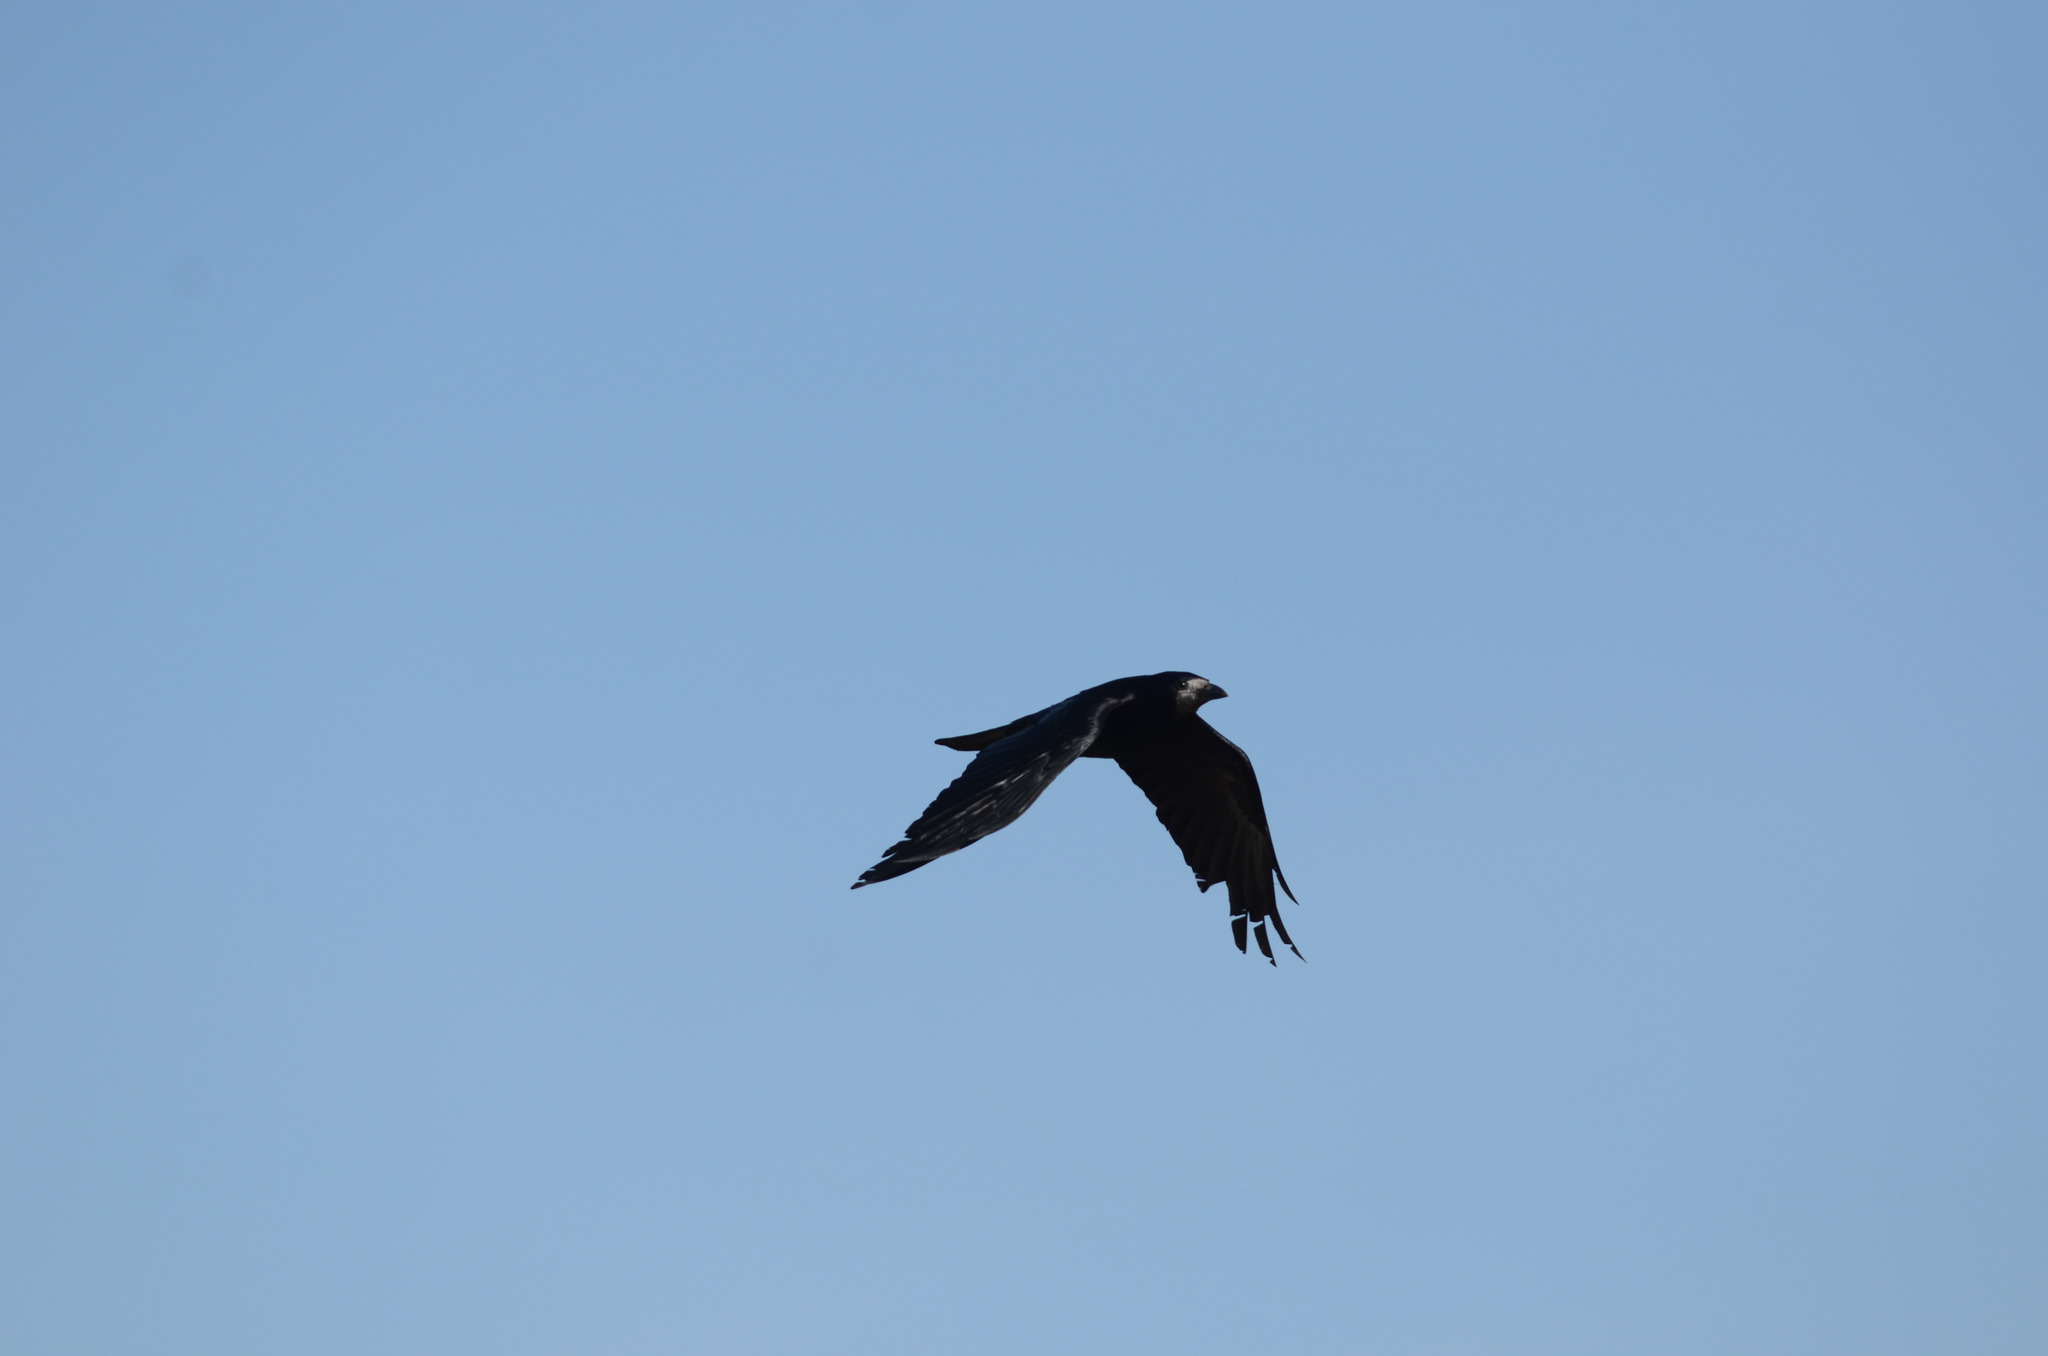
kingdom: Animalia
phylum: Chordata
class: Aves
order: Passeriformes
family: Corvidae
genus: Corvus
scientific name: Corvus frugilegus
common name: Rook
